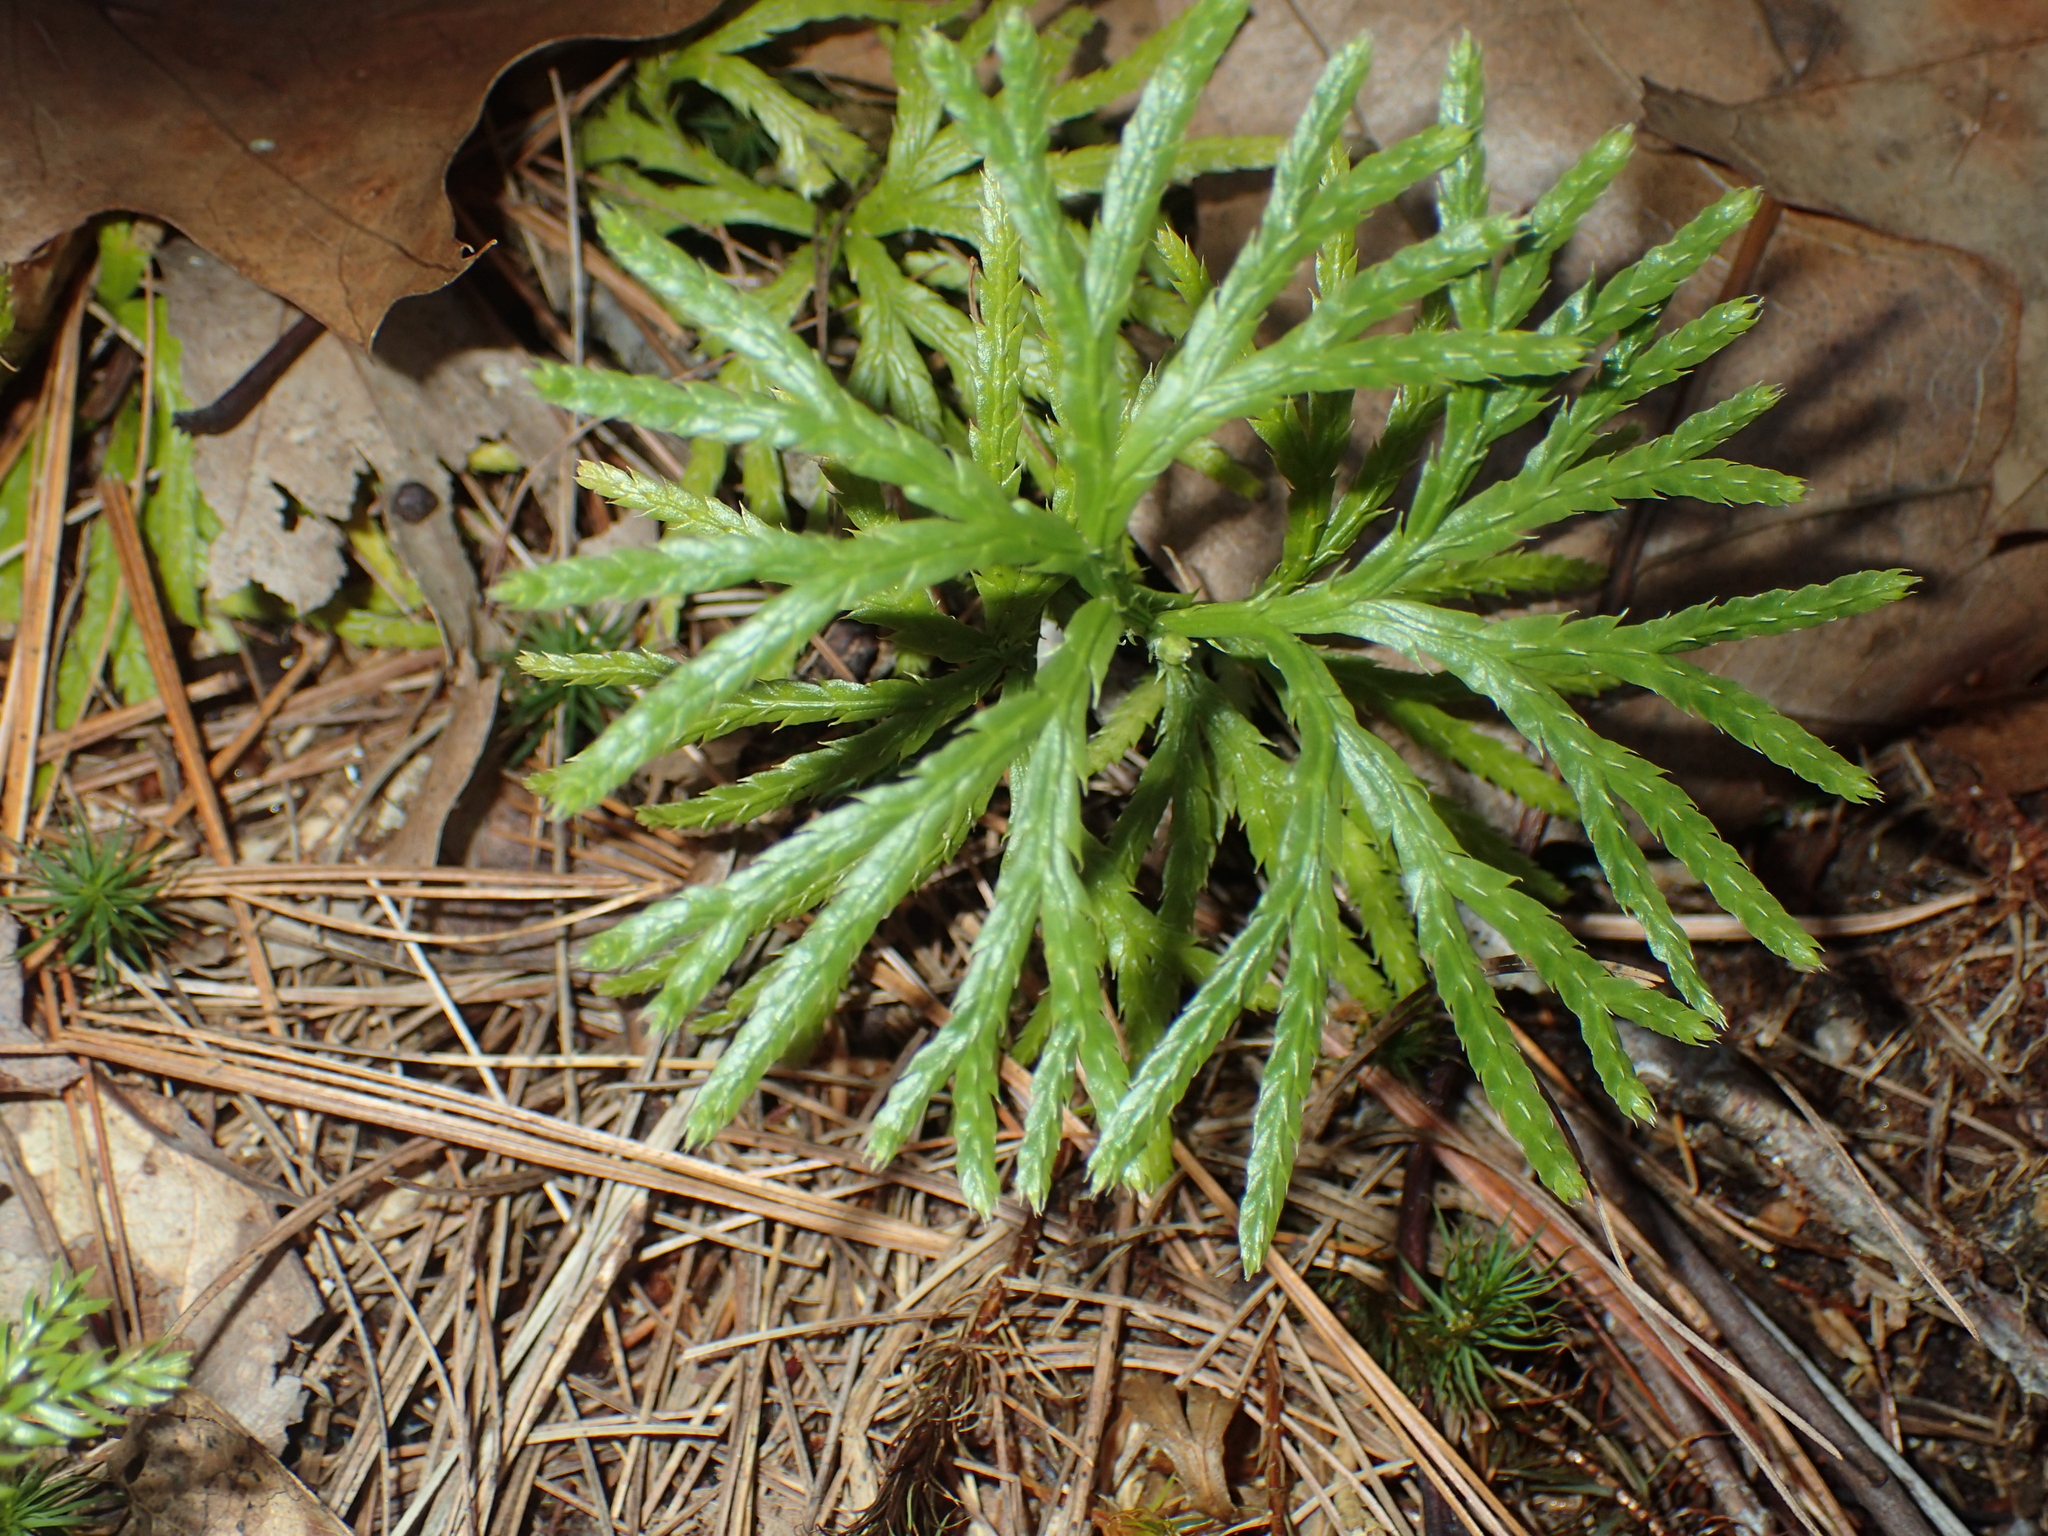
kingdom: Plantae
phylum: Tracheophyta
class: Lycopodiopsida
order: Lycopodiales
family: Lycopodiaceae
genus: Diphasiastrum
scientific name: Diphasiastrum digitatum
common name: Southern running-pine
